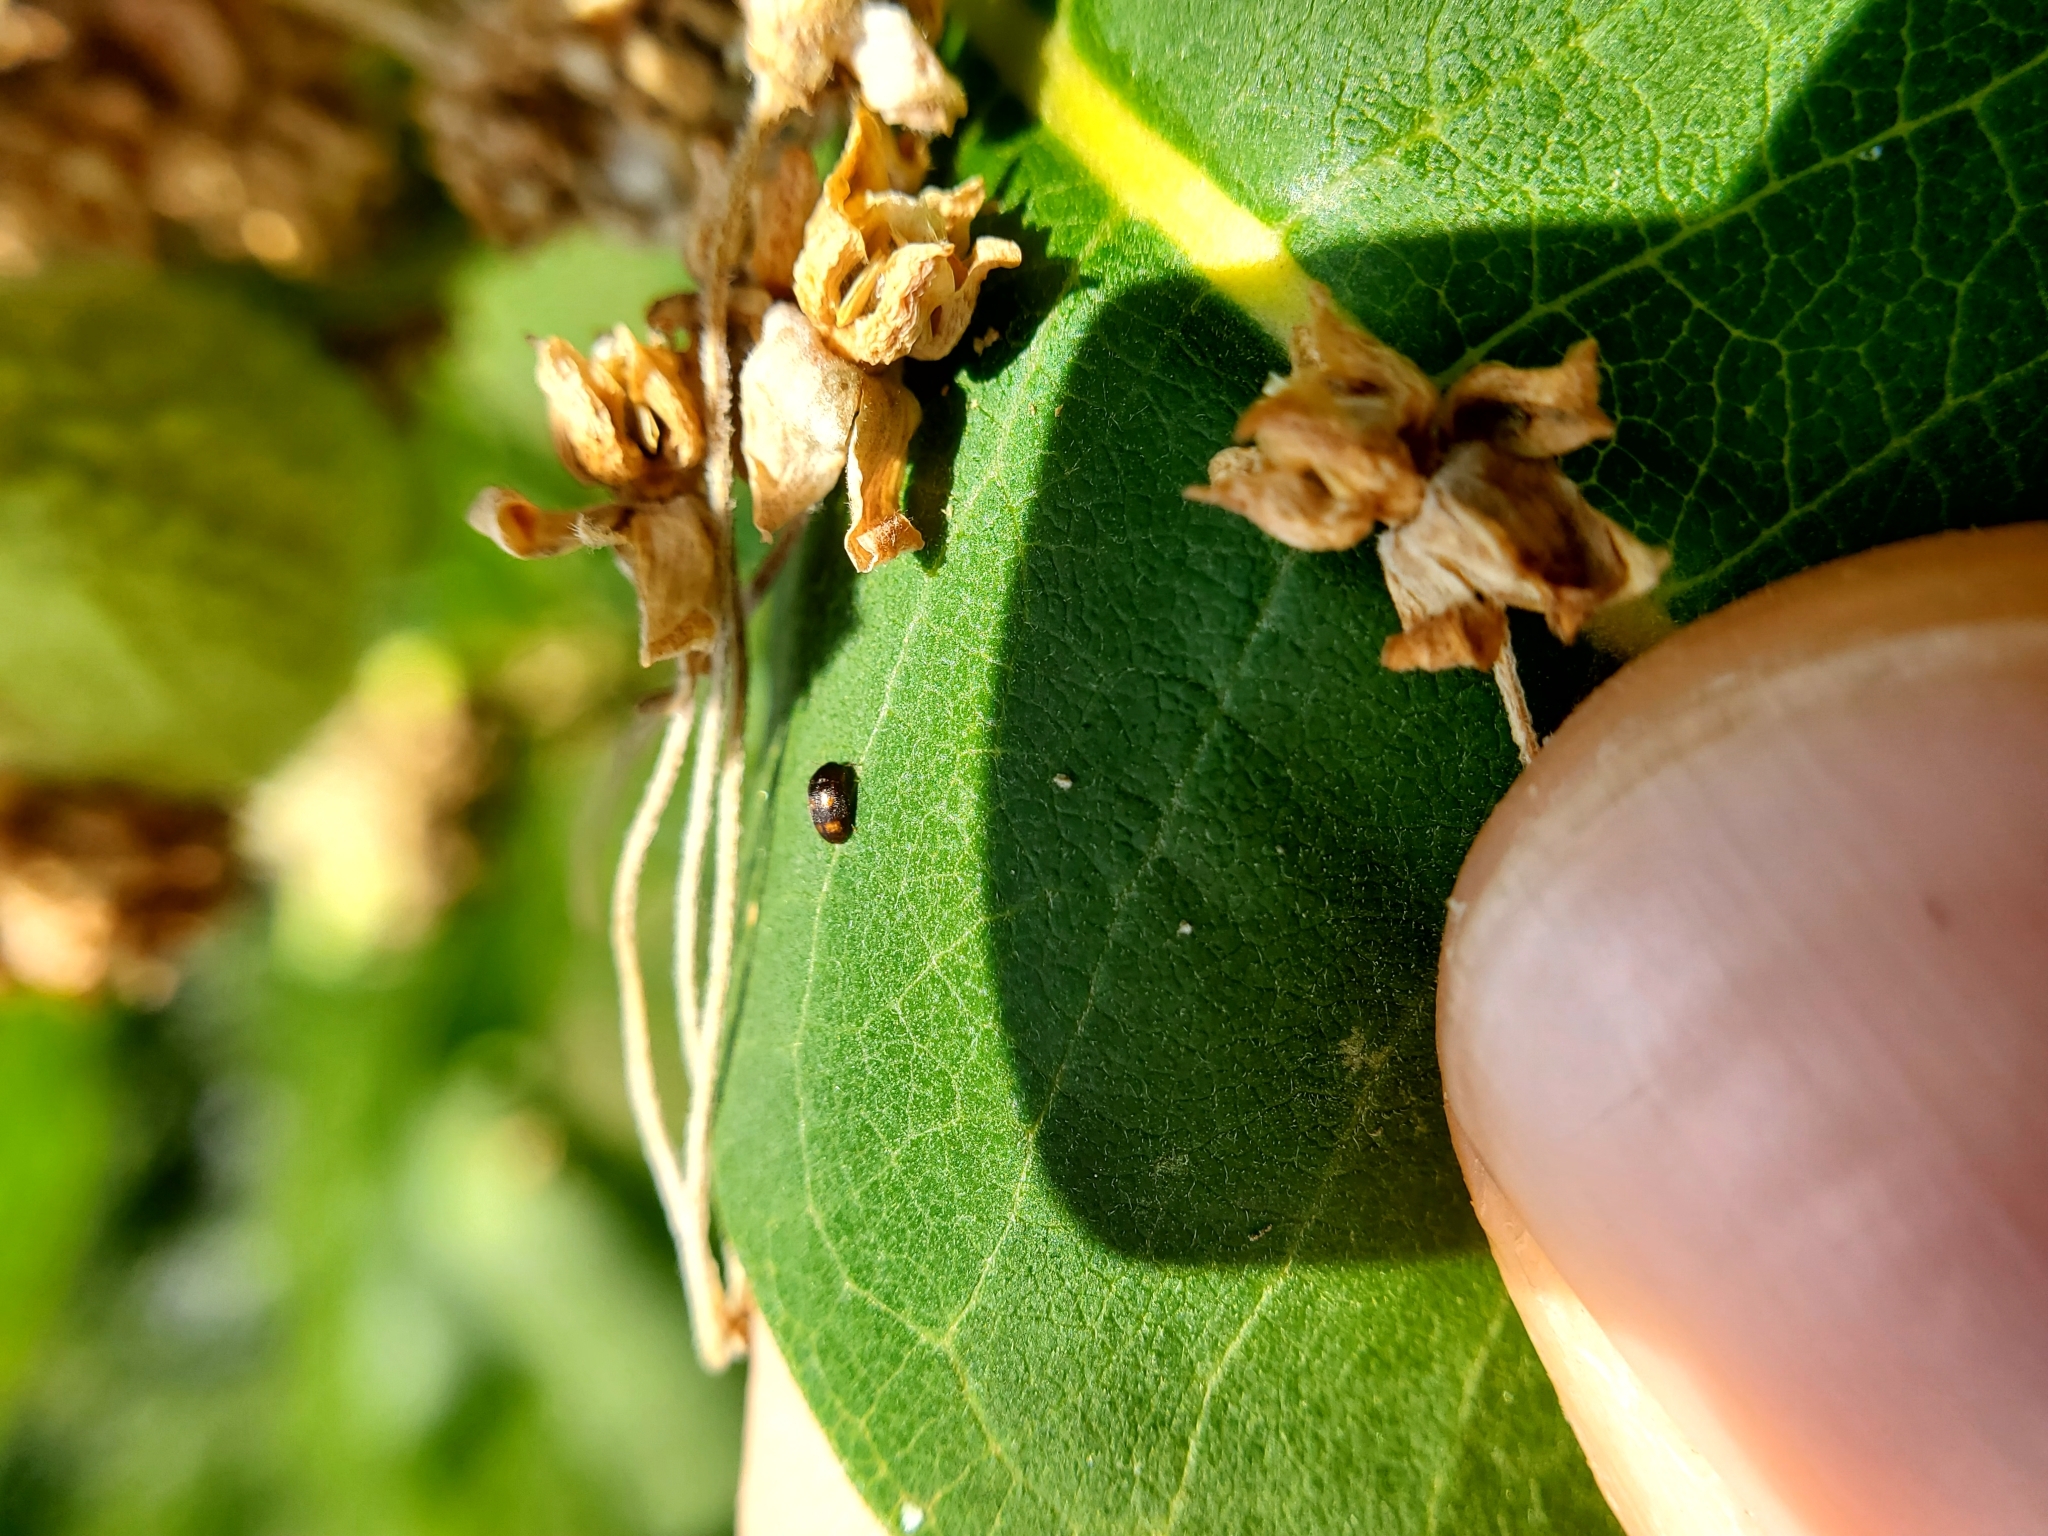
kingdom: Animalia
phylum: Arthropoda
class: Insecta
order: Coleoptera
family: Mycetophagidae
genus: Litargus
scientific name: Litargus tetraspilotus
